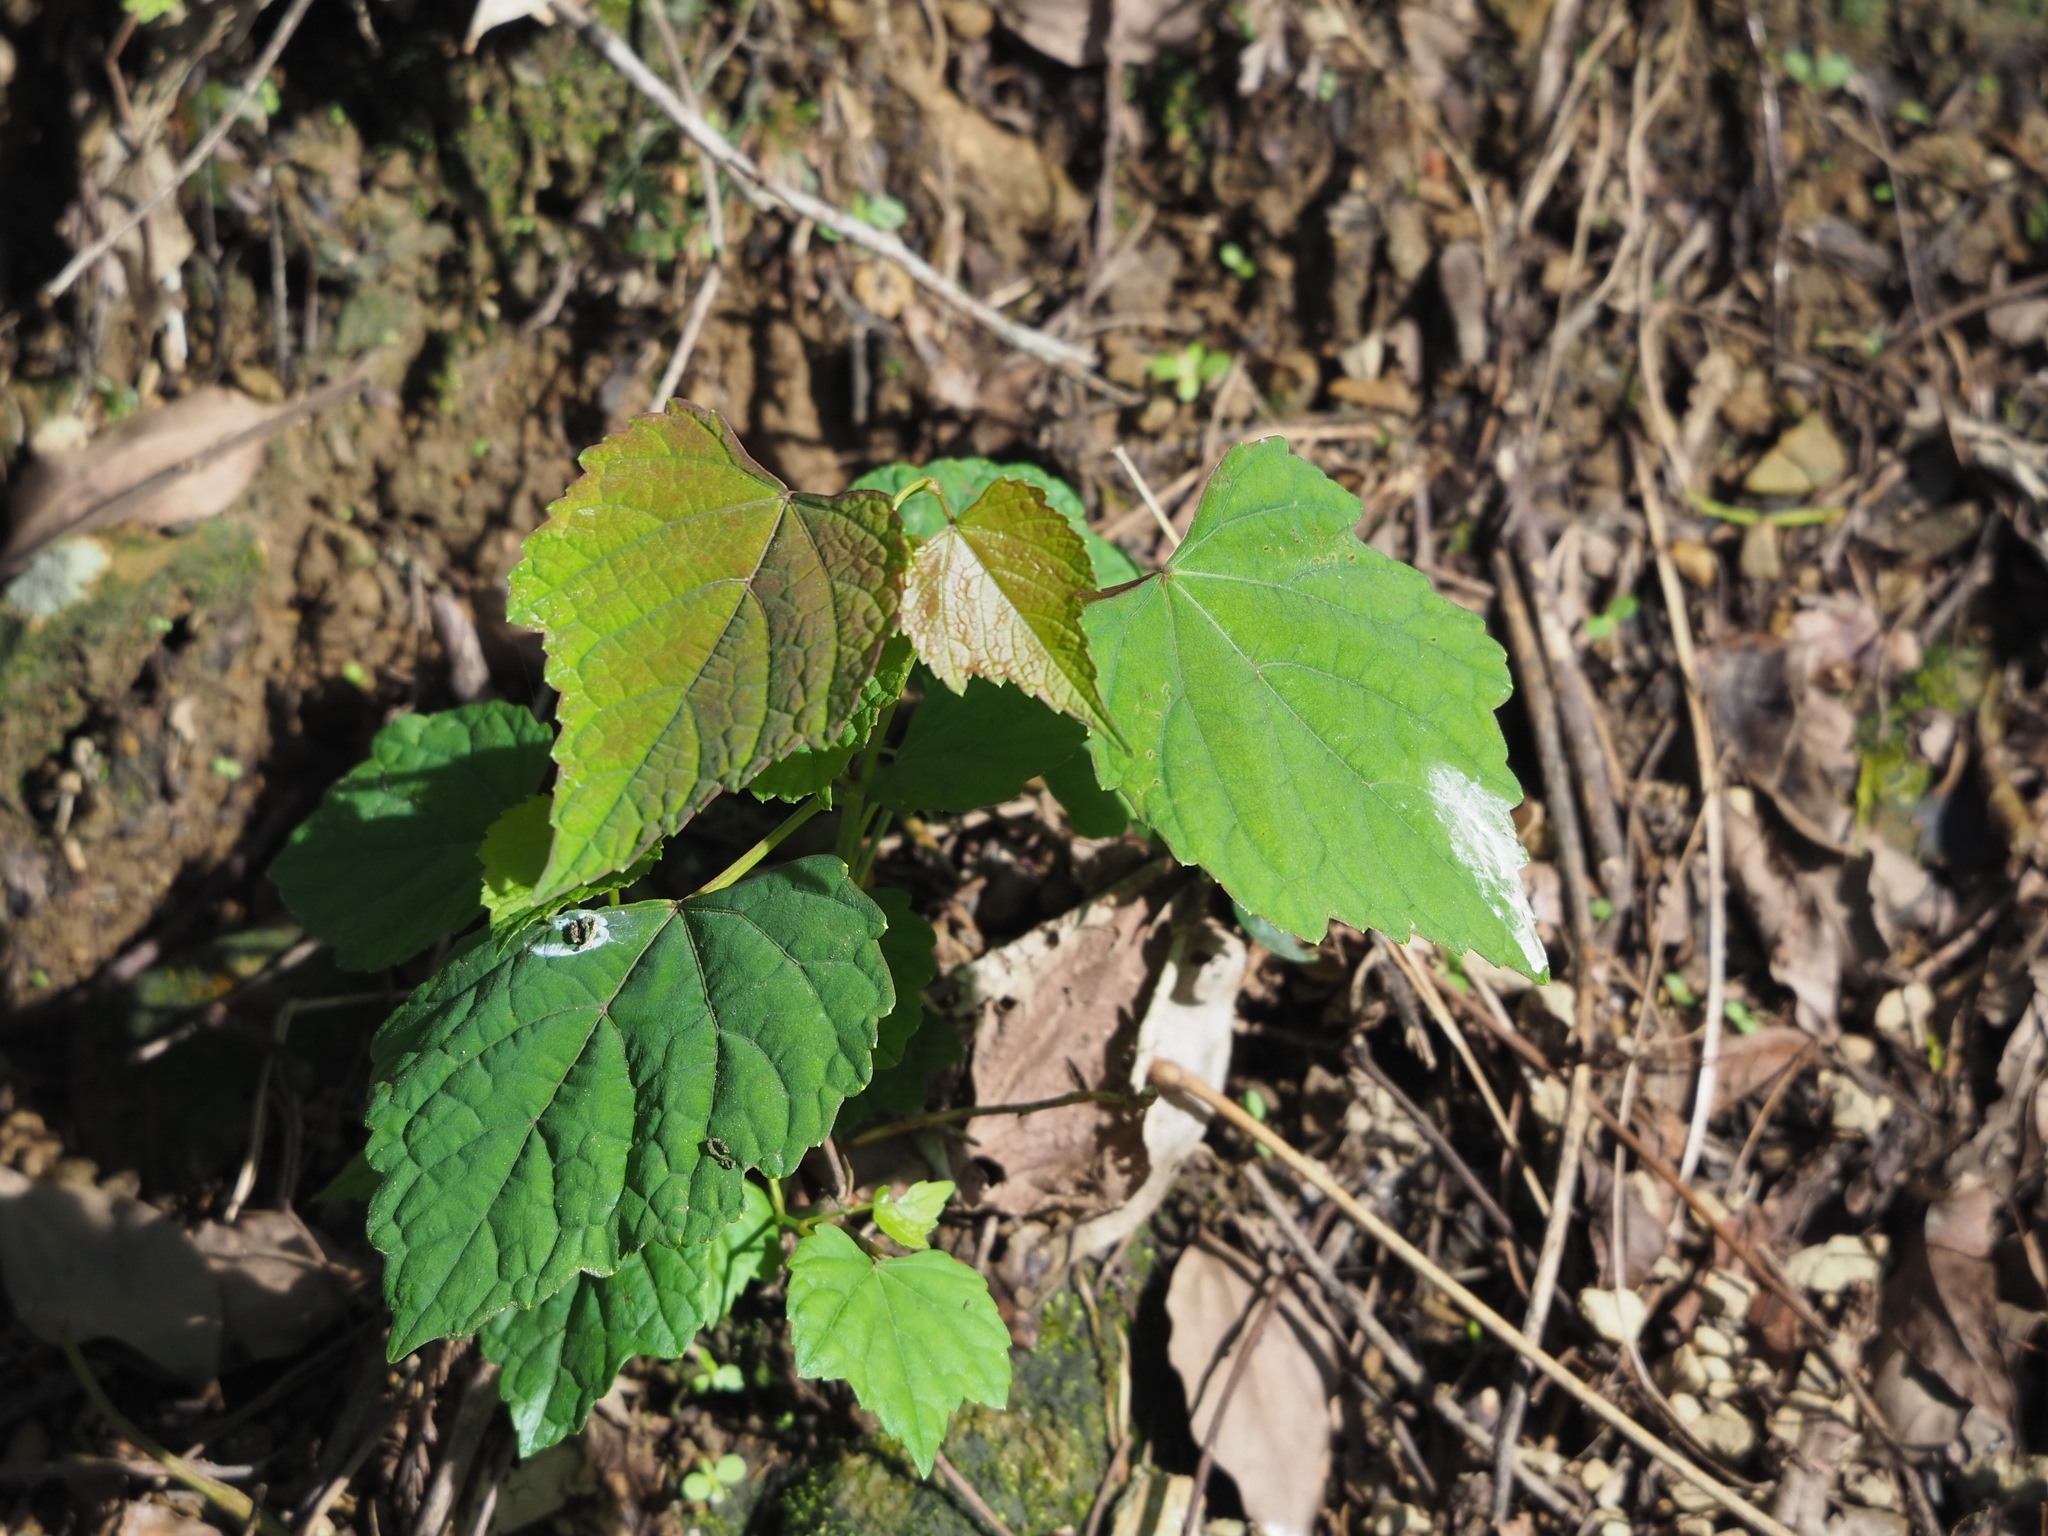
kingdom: Plantae
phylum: Tracheophyta
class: Magnoliopsida
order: Vitales
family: Vitaceae
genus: Ampelopsis
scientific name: Ampelopsis glandulosa
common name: Amur peppervine
